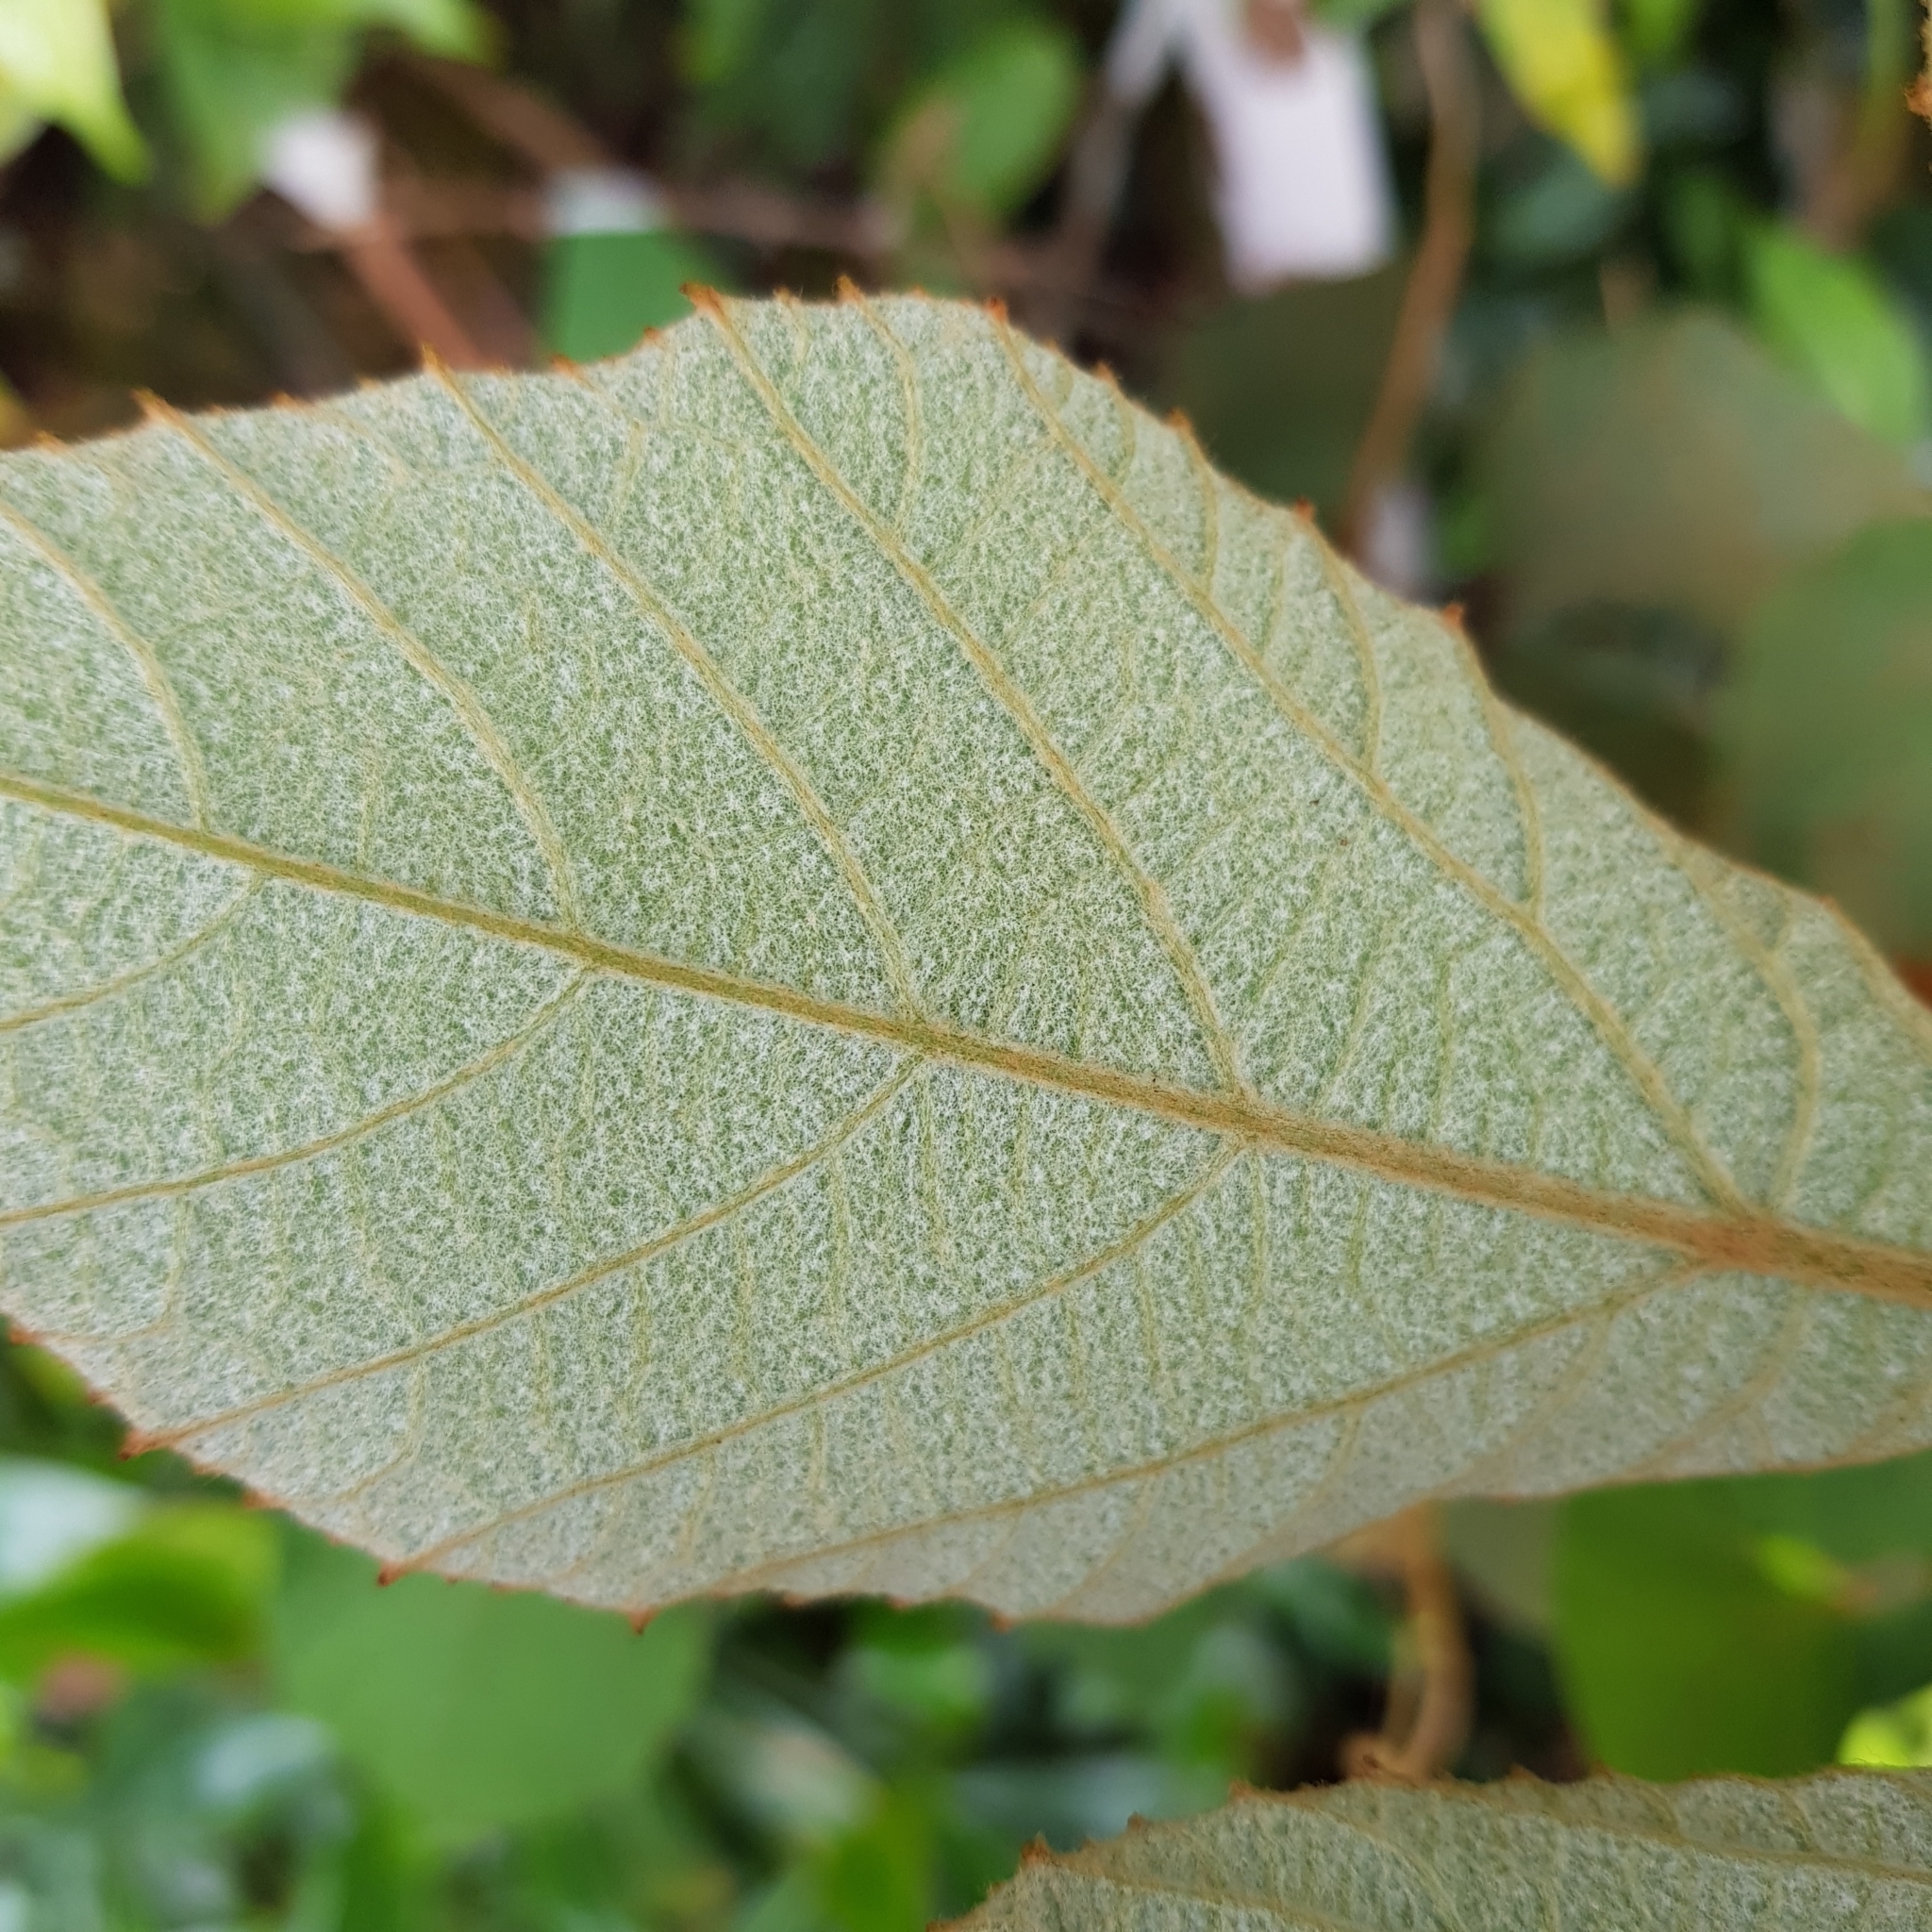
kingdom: Plantae
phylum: Tracheophyta
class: Magnoliopsida
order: Vitales
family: Vitaceae
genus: Ampelocissus
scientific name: Ampelocissus elegans
